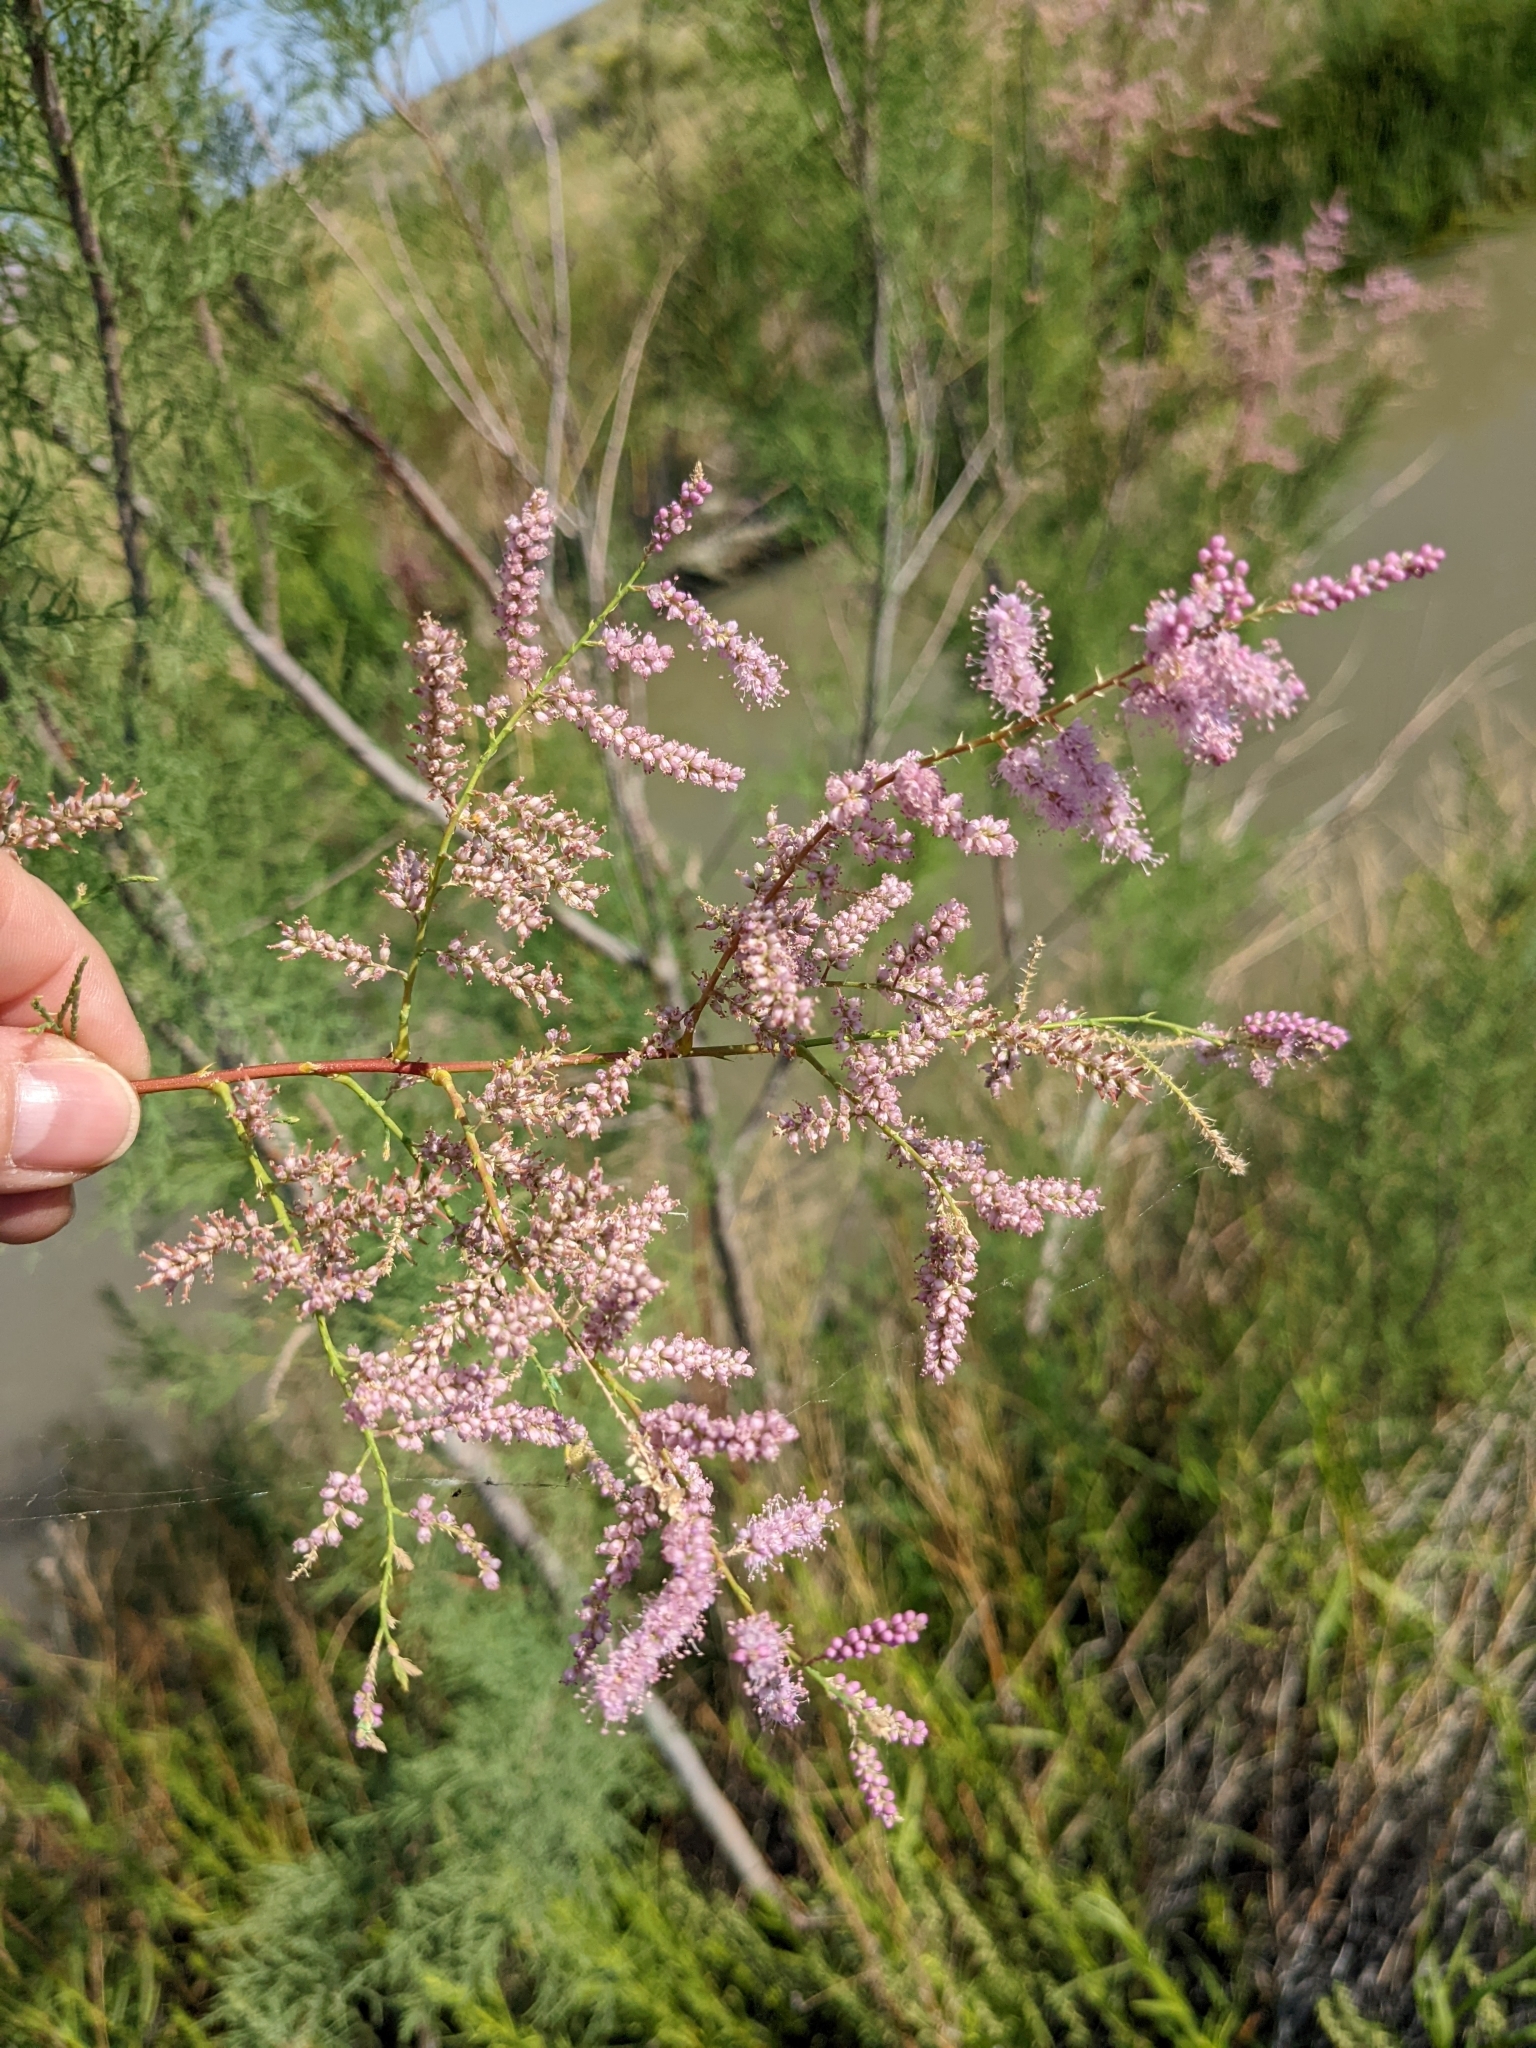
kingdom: Plantae
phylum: Tracheophyta
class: Magnoliopsida
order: Caryophyllales
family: Tamaricaceae
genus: Tamarix
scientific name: Tamarix ramosissima
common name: Pink tamarisk
